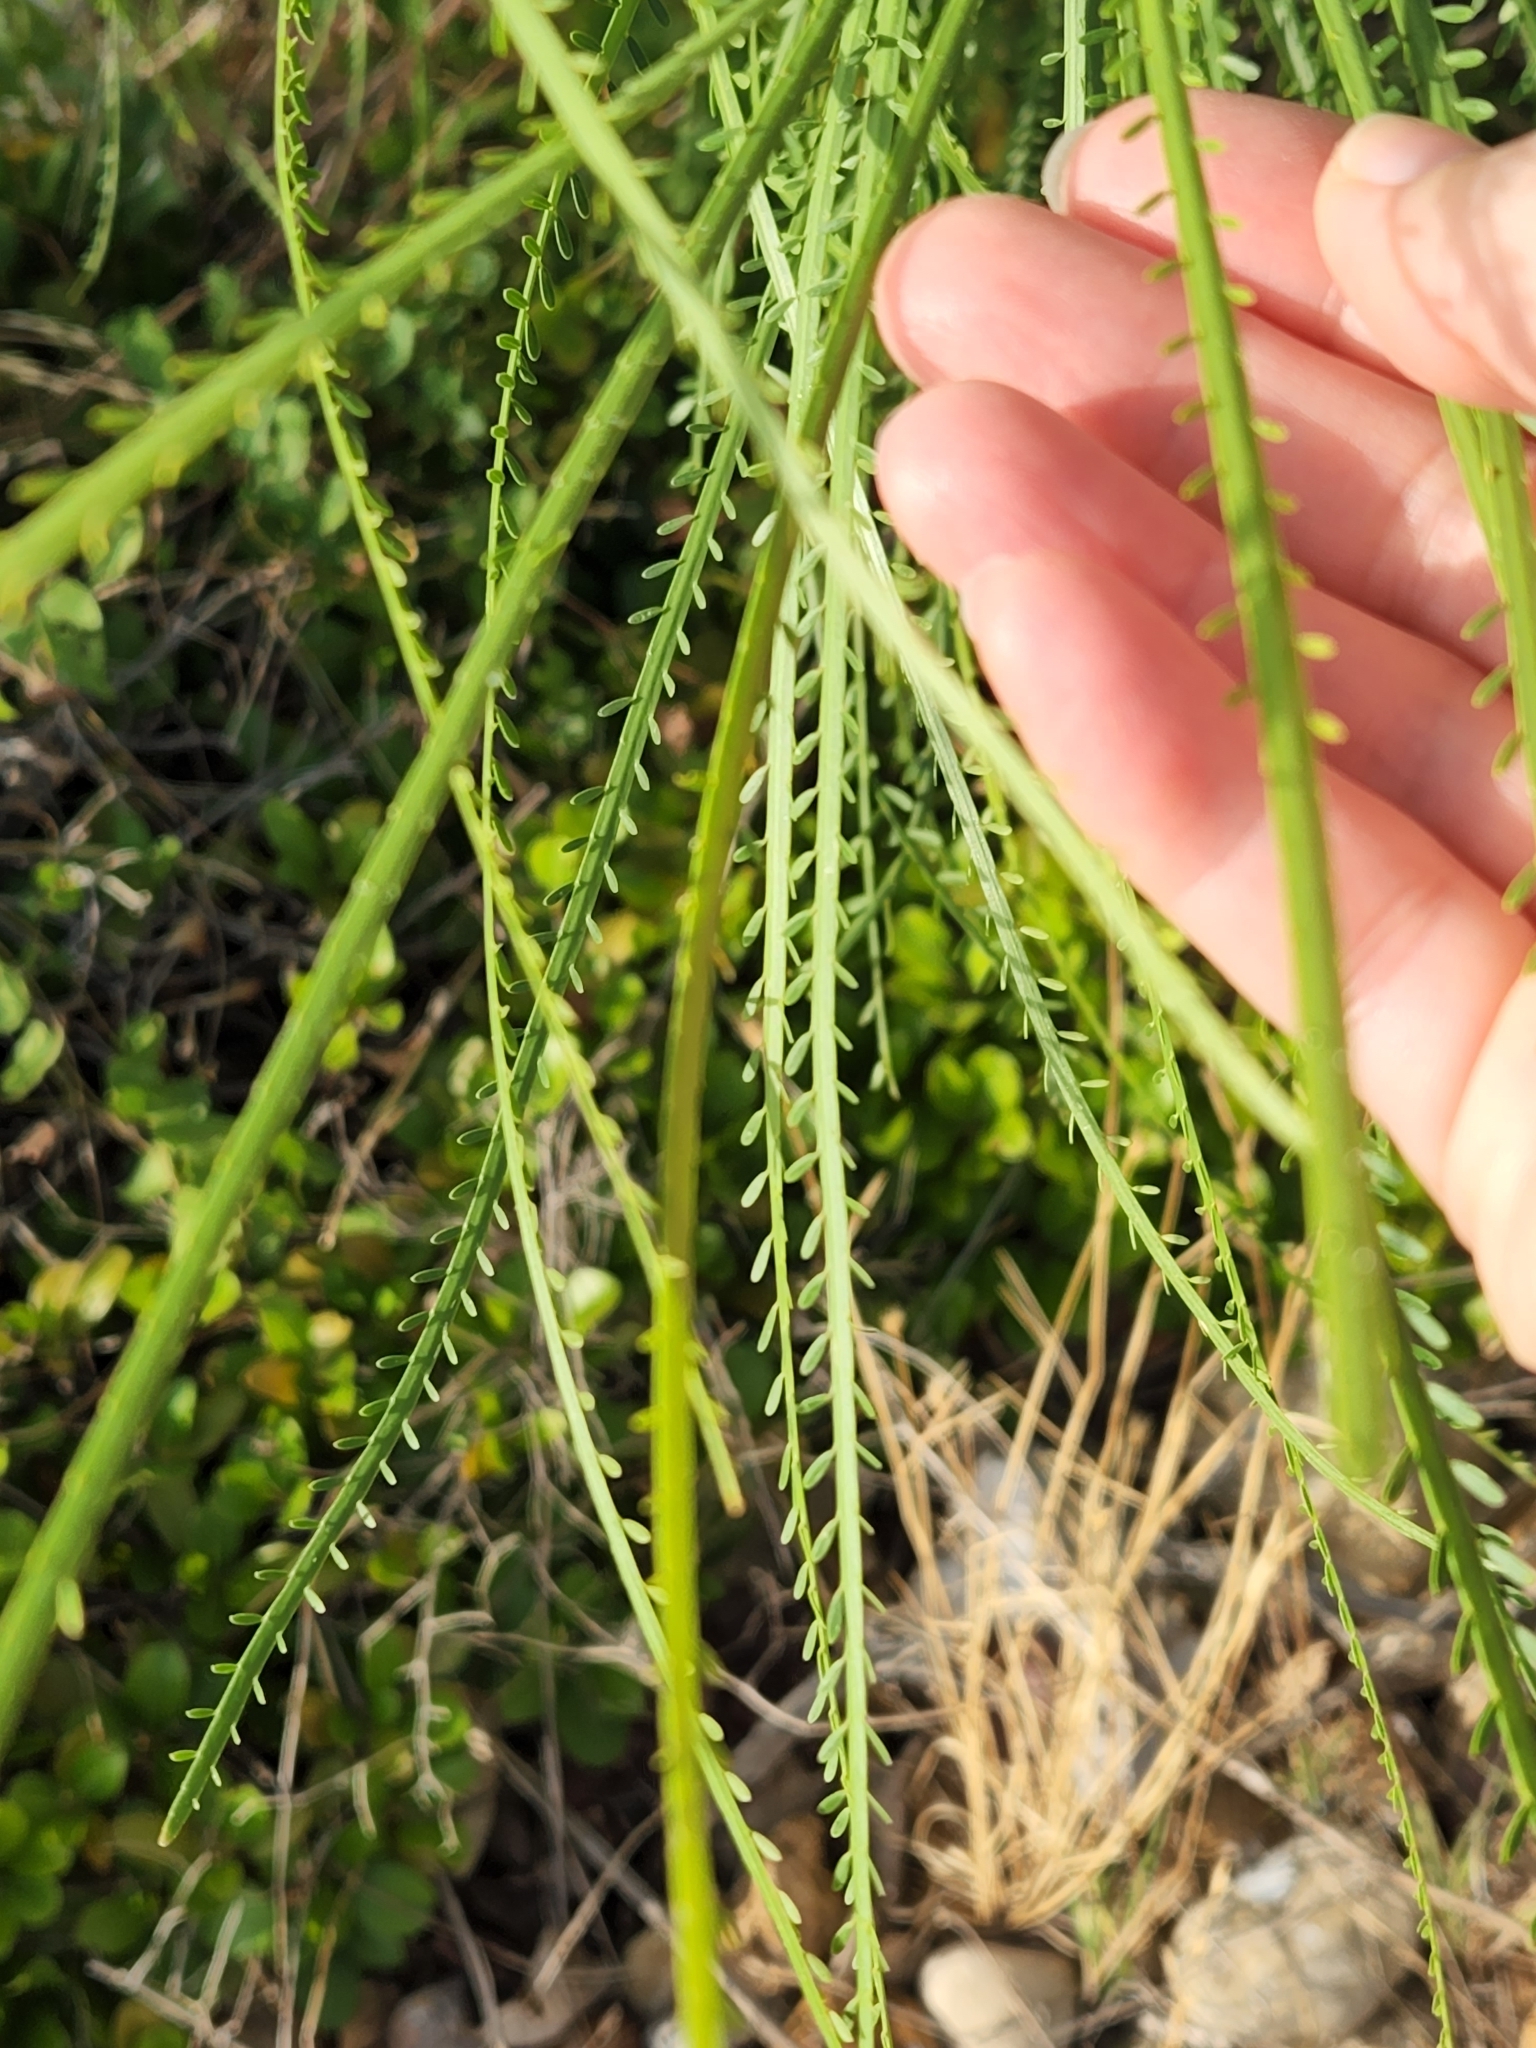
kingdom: Plantae
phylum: Tracheophyta
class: Magnoliopsida
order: Fabales
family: Fabaceae
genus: Parkinsonia
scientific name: Parkinsonia aculeata
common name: Jerusalem thorn
